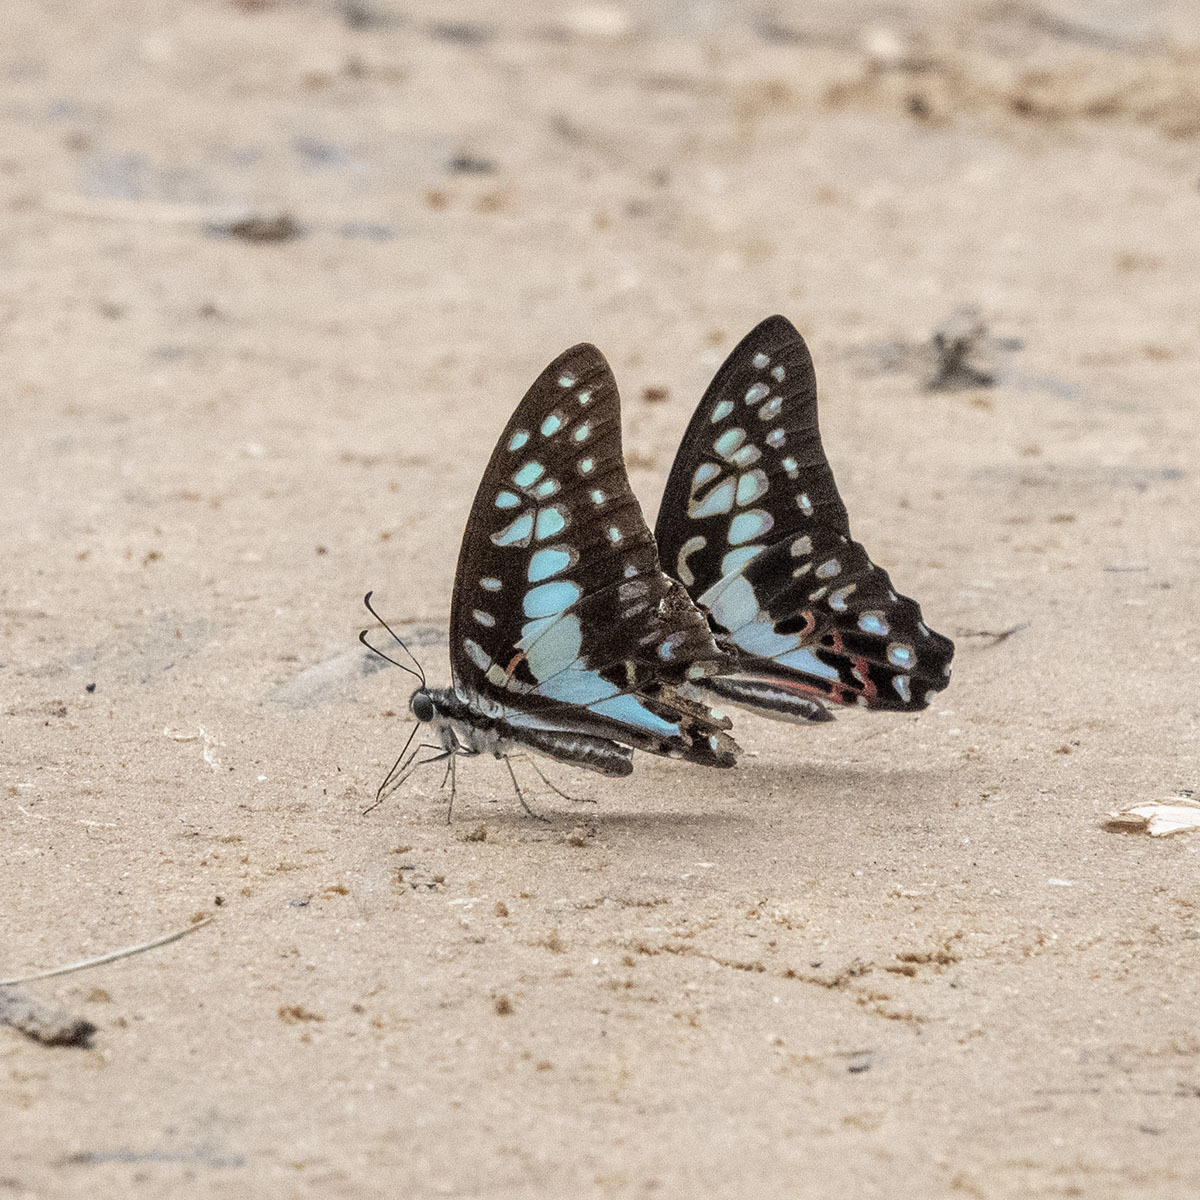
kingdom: Animalia
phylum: Arthropoda
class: Insecta
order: Lepidoptera
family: Papilionidae
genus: Graphium
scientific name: Graphium doson
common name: Common jay
